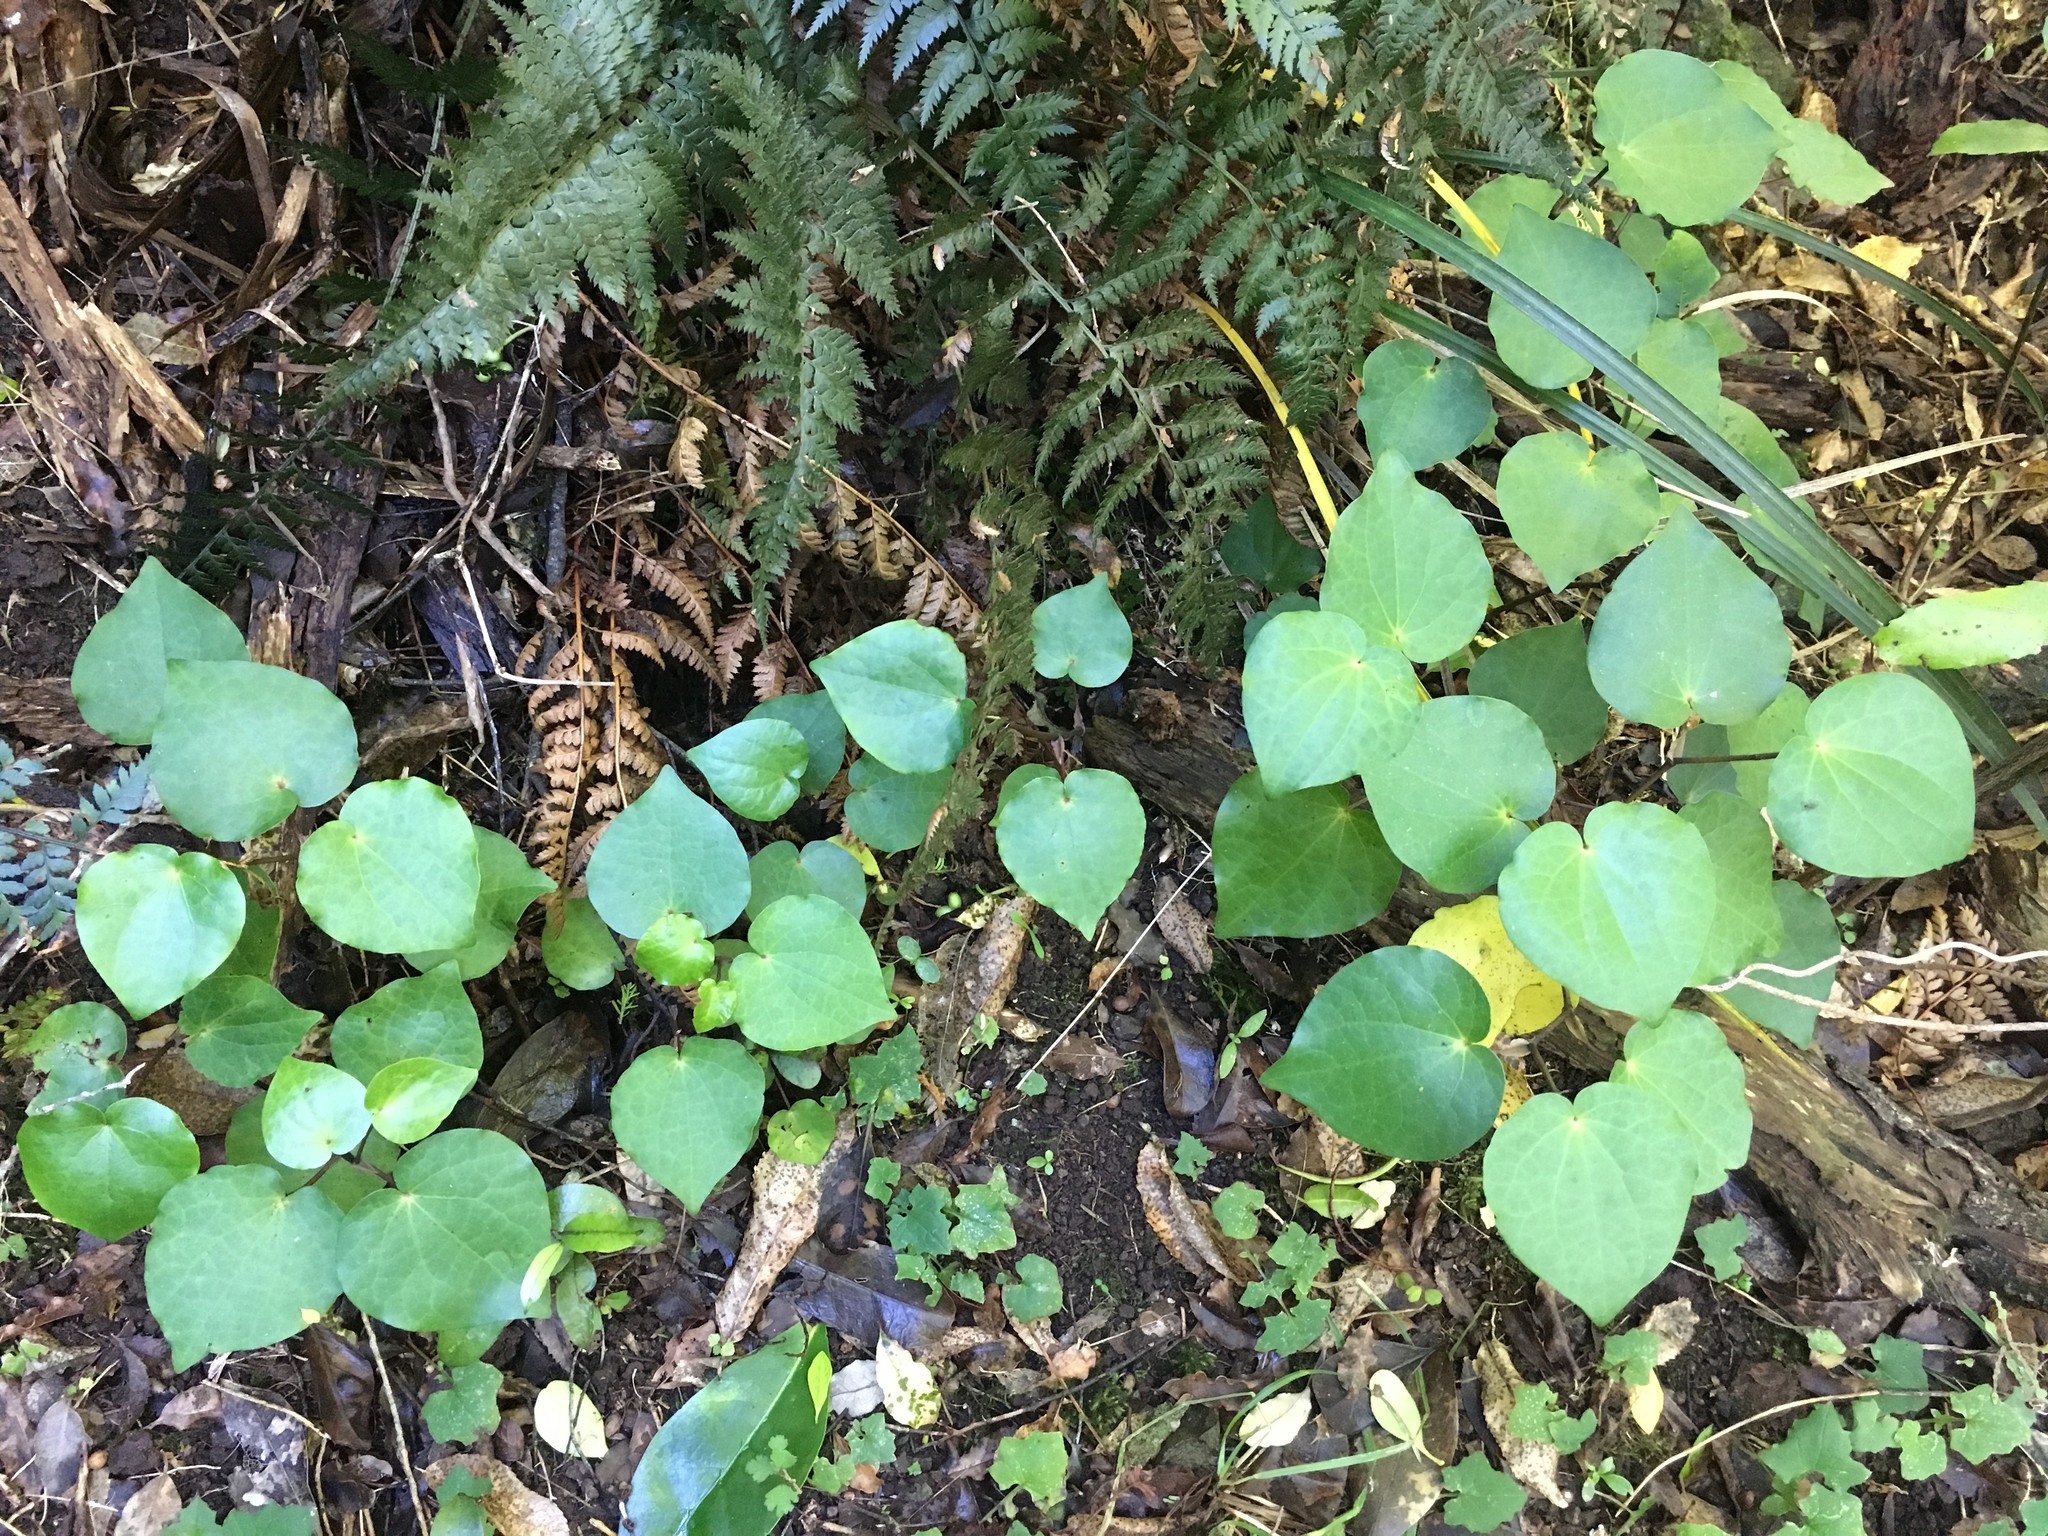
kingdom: Plantae
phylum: Tracheophyta
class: Magnoliopsida
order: Piperales
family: Piperaceae
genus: Macropiper
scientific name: Macropiper excelsum
